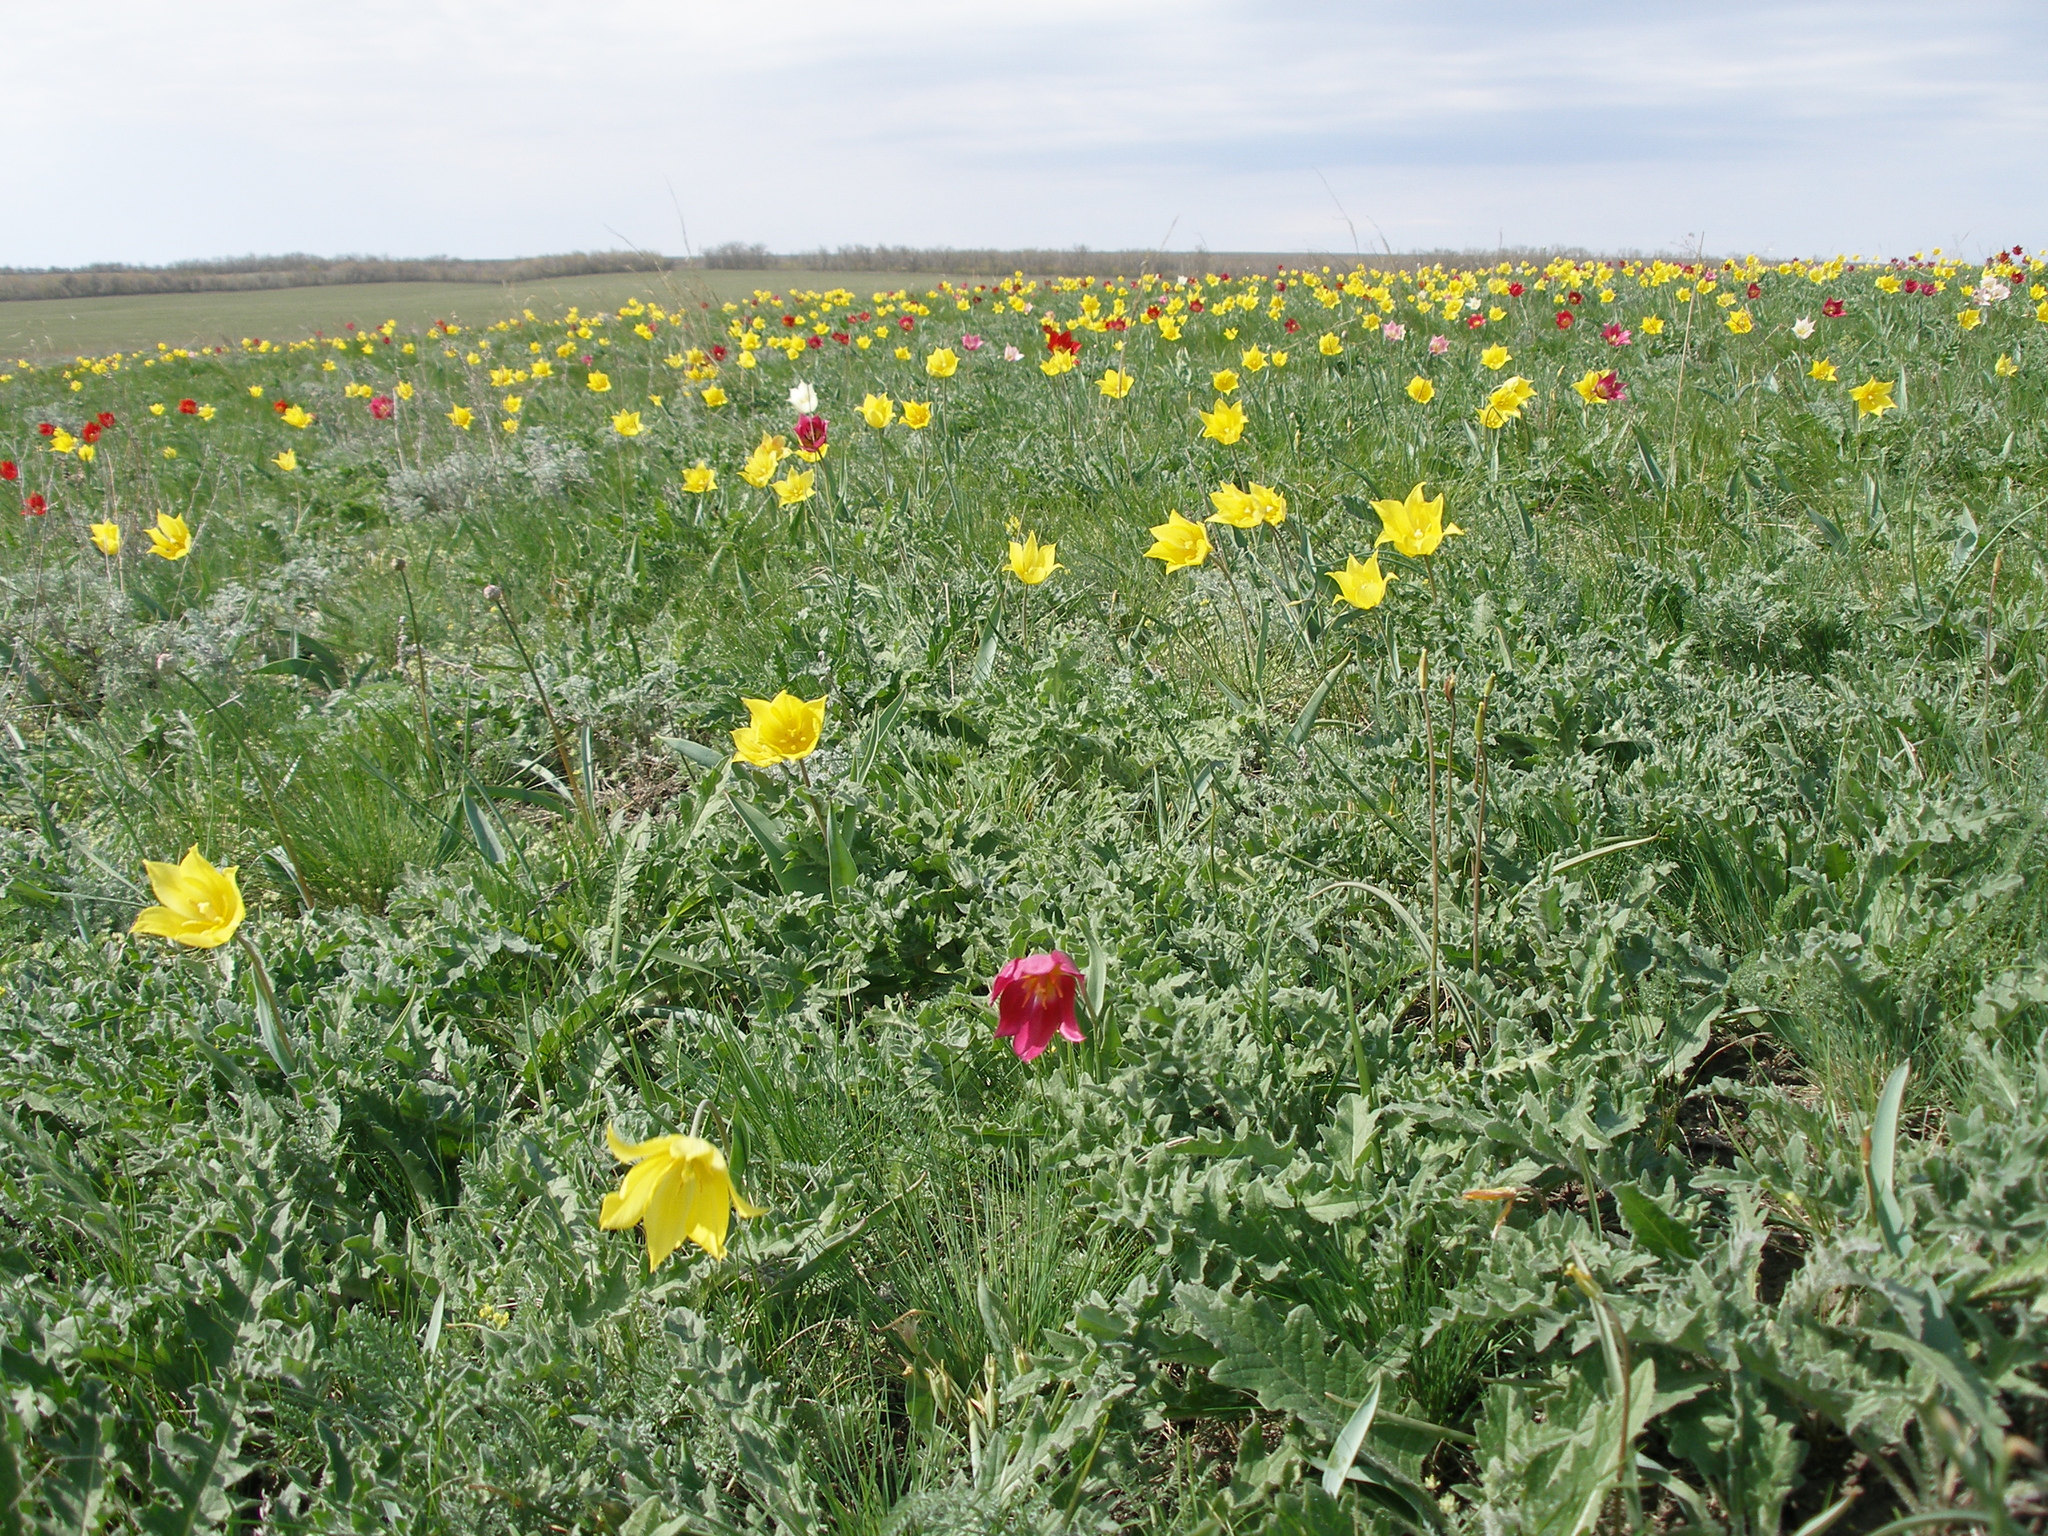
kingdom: Plantae
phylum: Tracheophyta
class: Liliopsida
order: Liliales
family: Liliaceae
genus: Tulipa
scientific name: Tulipa suaveolens
